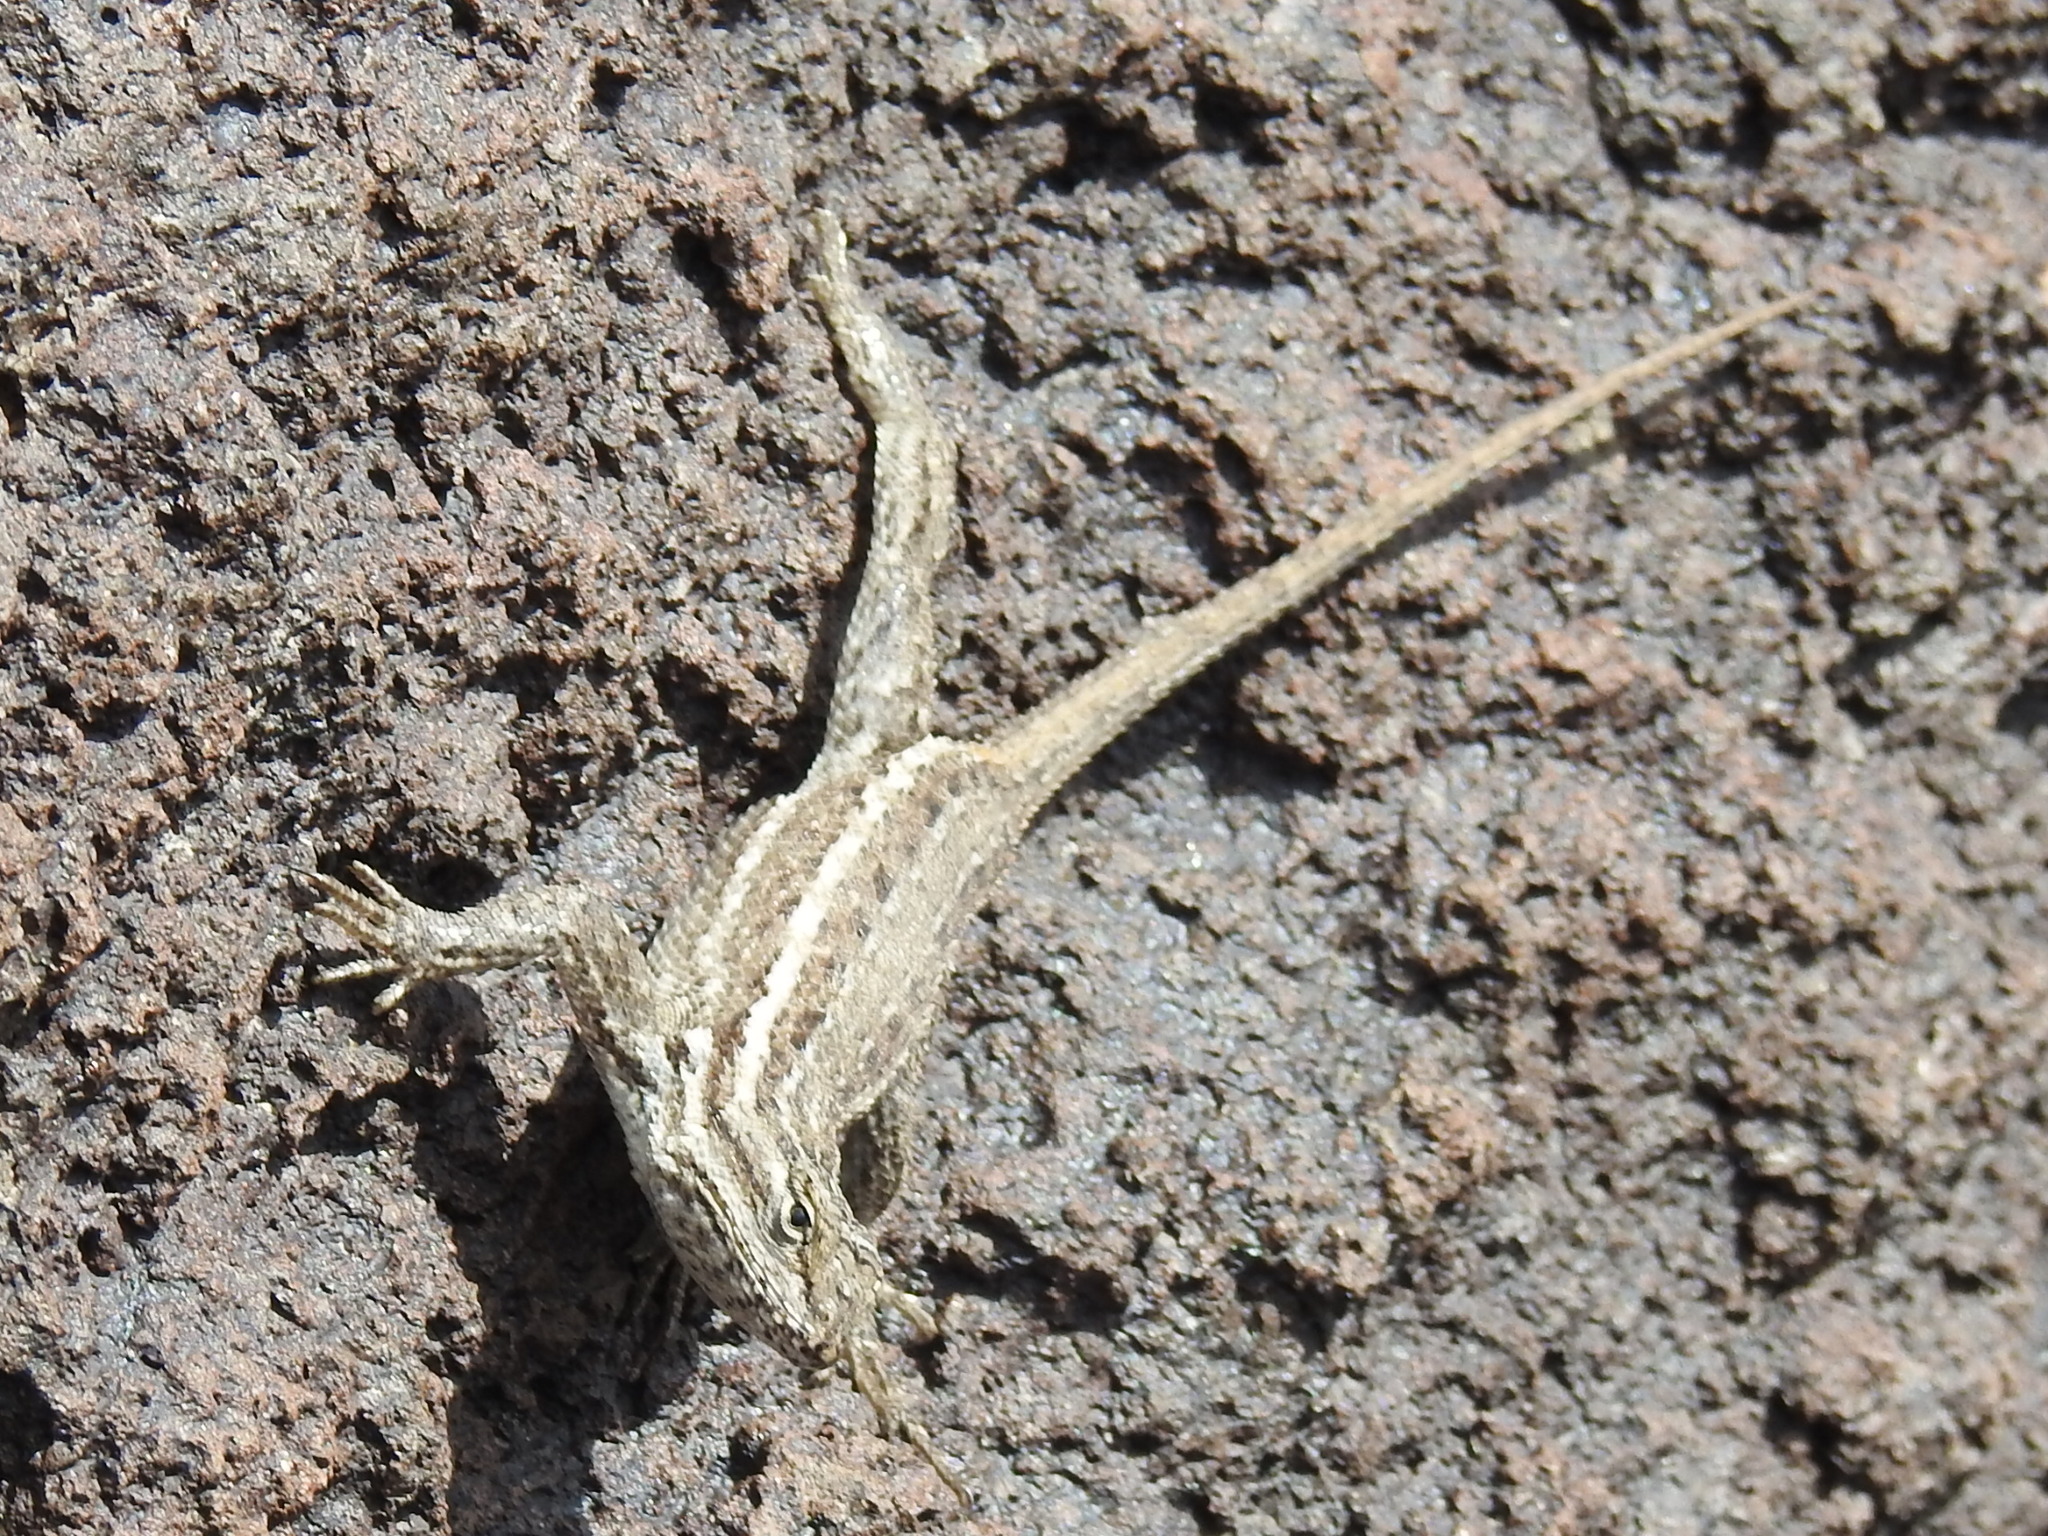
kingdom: Animalia
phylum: Chordata
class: Squamata
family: Phrynosomatidae
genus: Sceloporus
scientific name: Sceloporus cowlesi
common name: White sands prairie lizard
